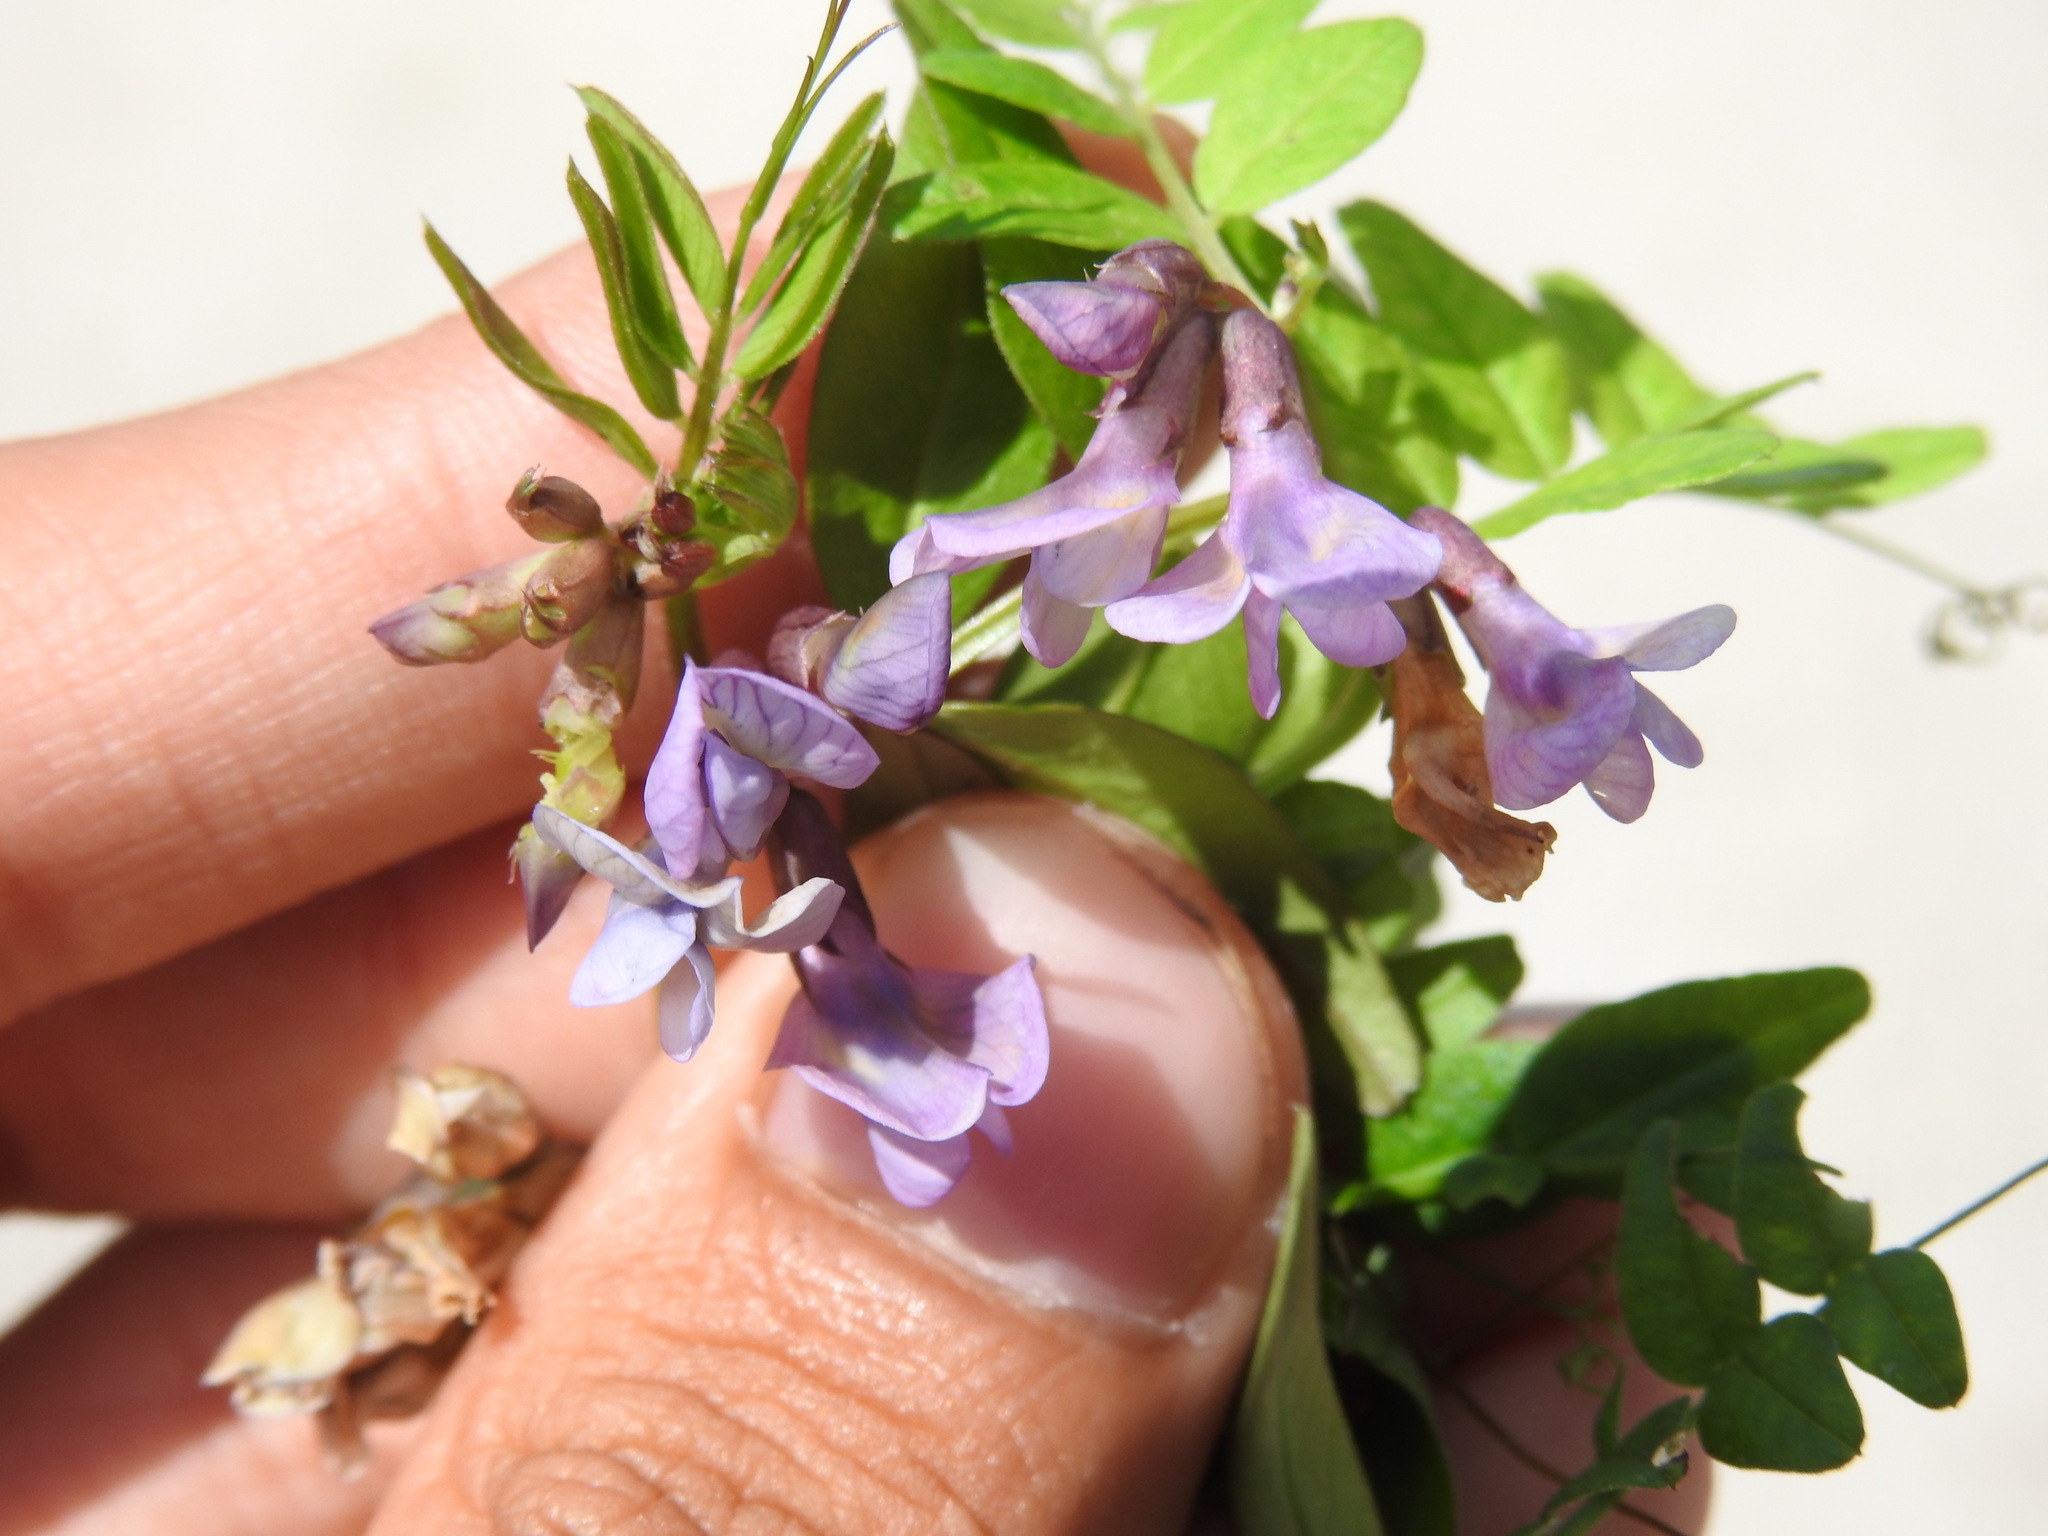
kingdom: Plantae
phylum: Tracheophyta
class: Magnoliopsida
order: Fabales
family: Fabaceae
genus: Vicia
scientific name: Vicia sepium
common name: Bush vetch
